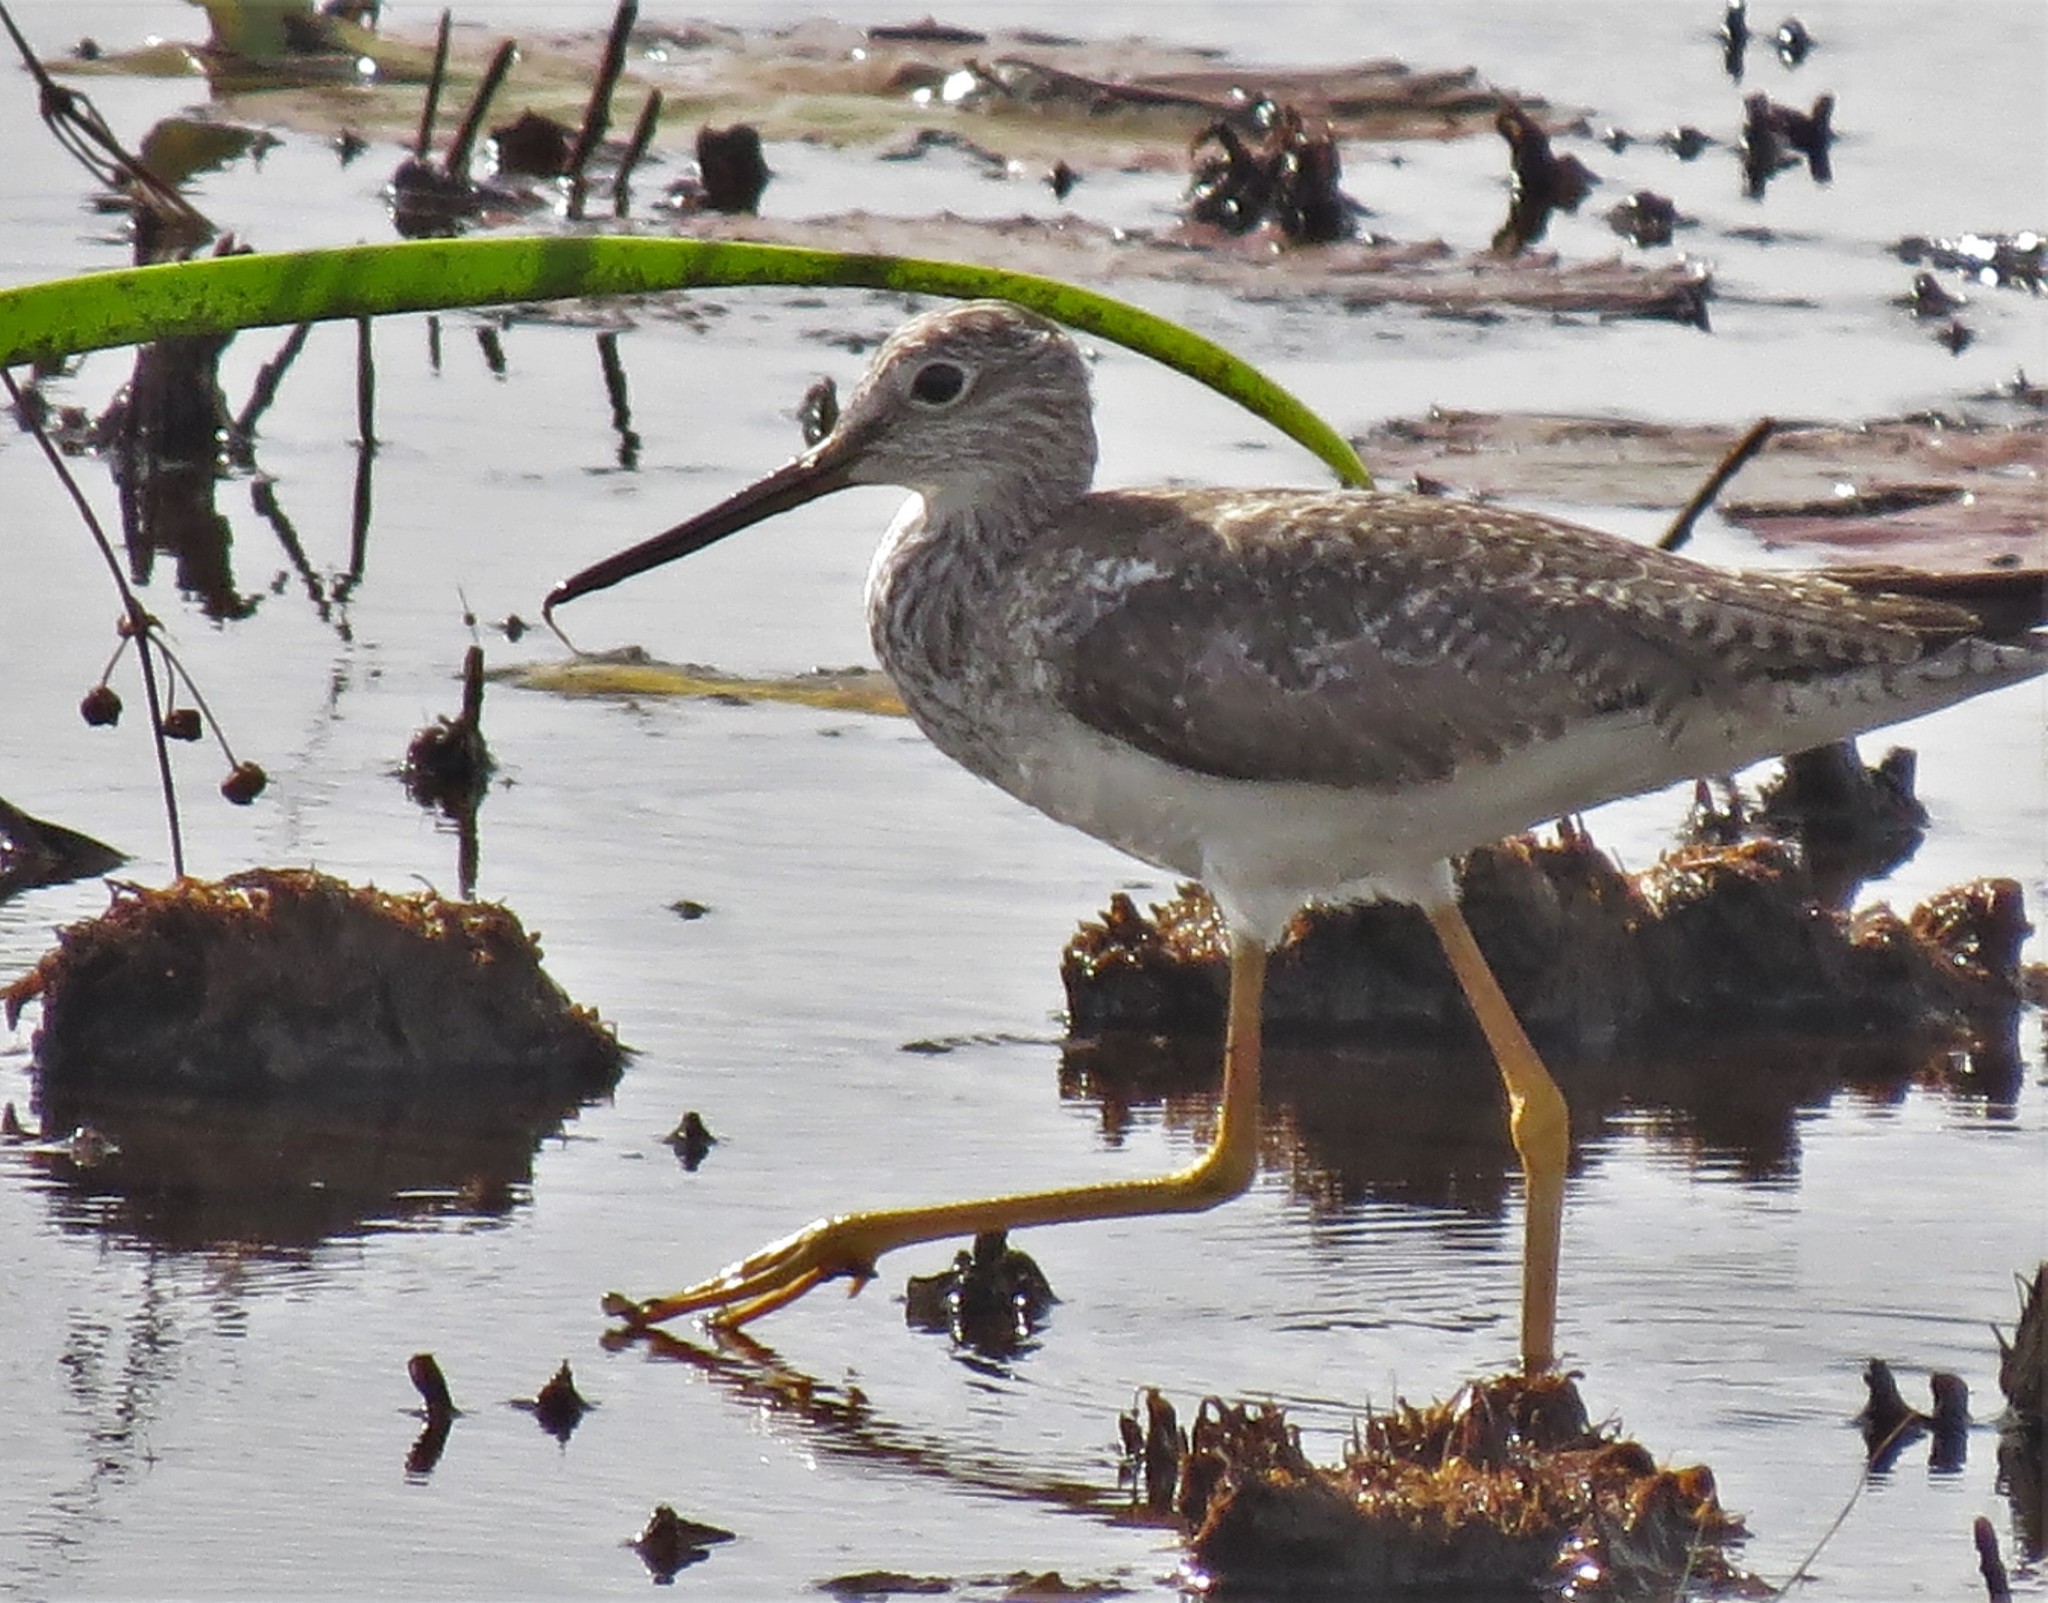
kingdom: Animalia
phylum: Chordata
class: Aves
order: Charadriiformes
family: Scolopacidae
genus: Tringa
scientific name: Tringa melanoleuca
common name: Greater yellowlegs
